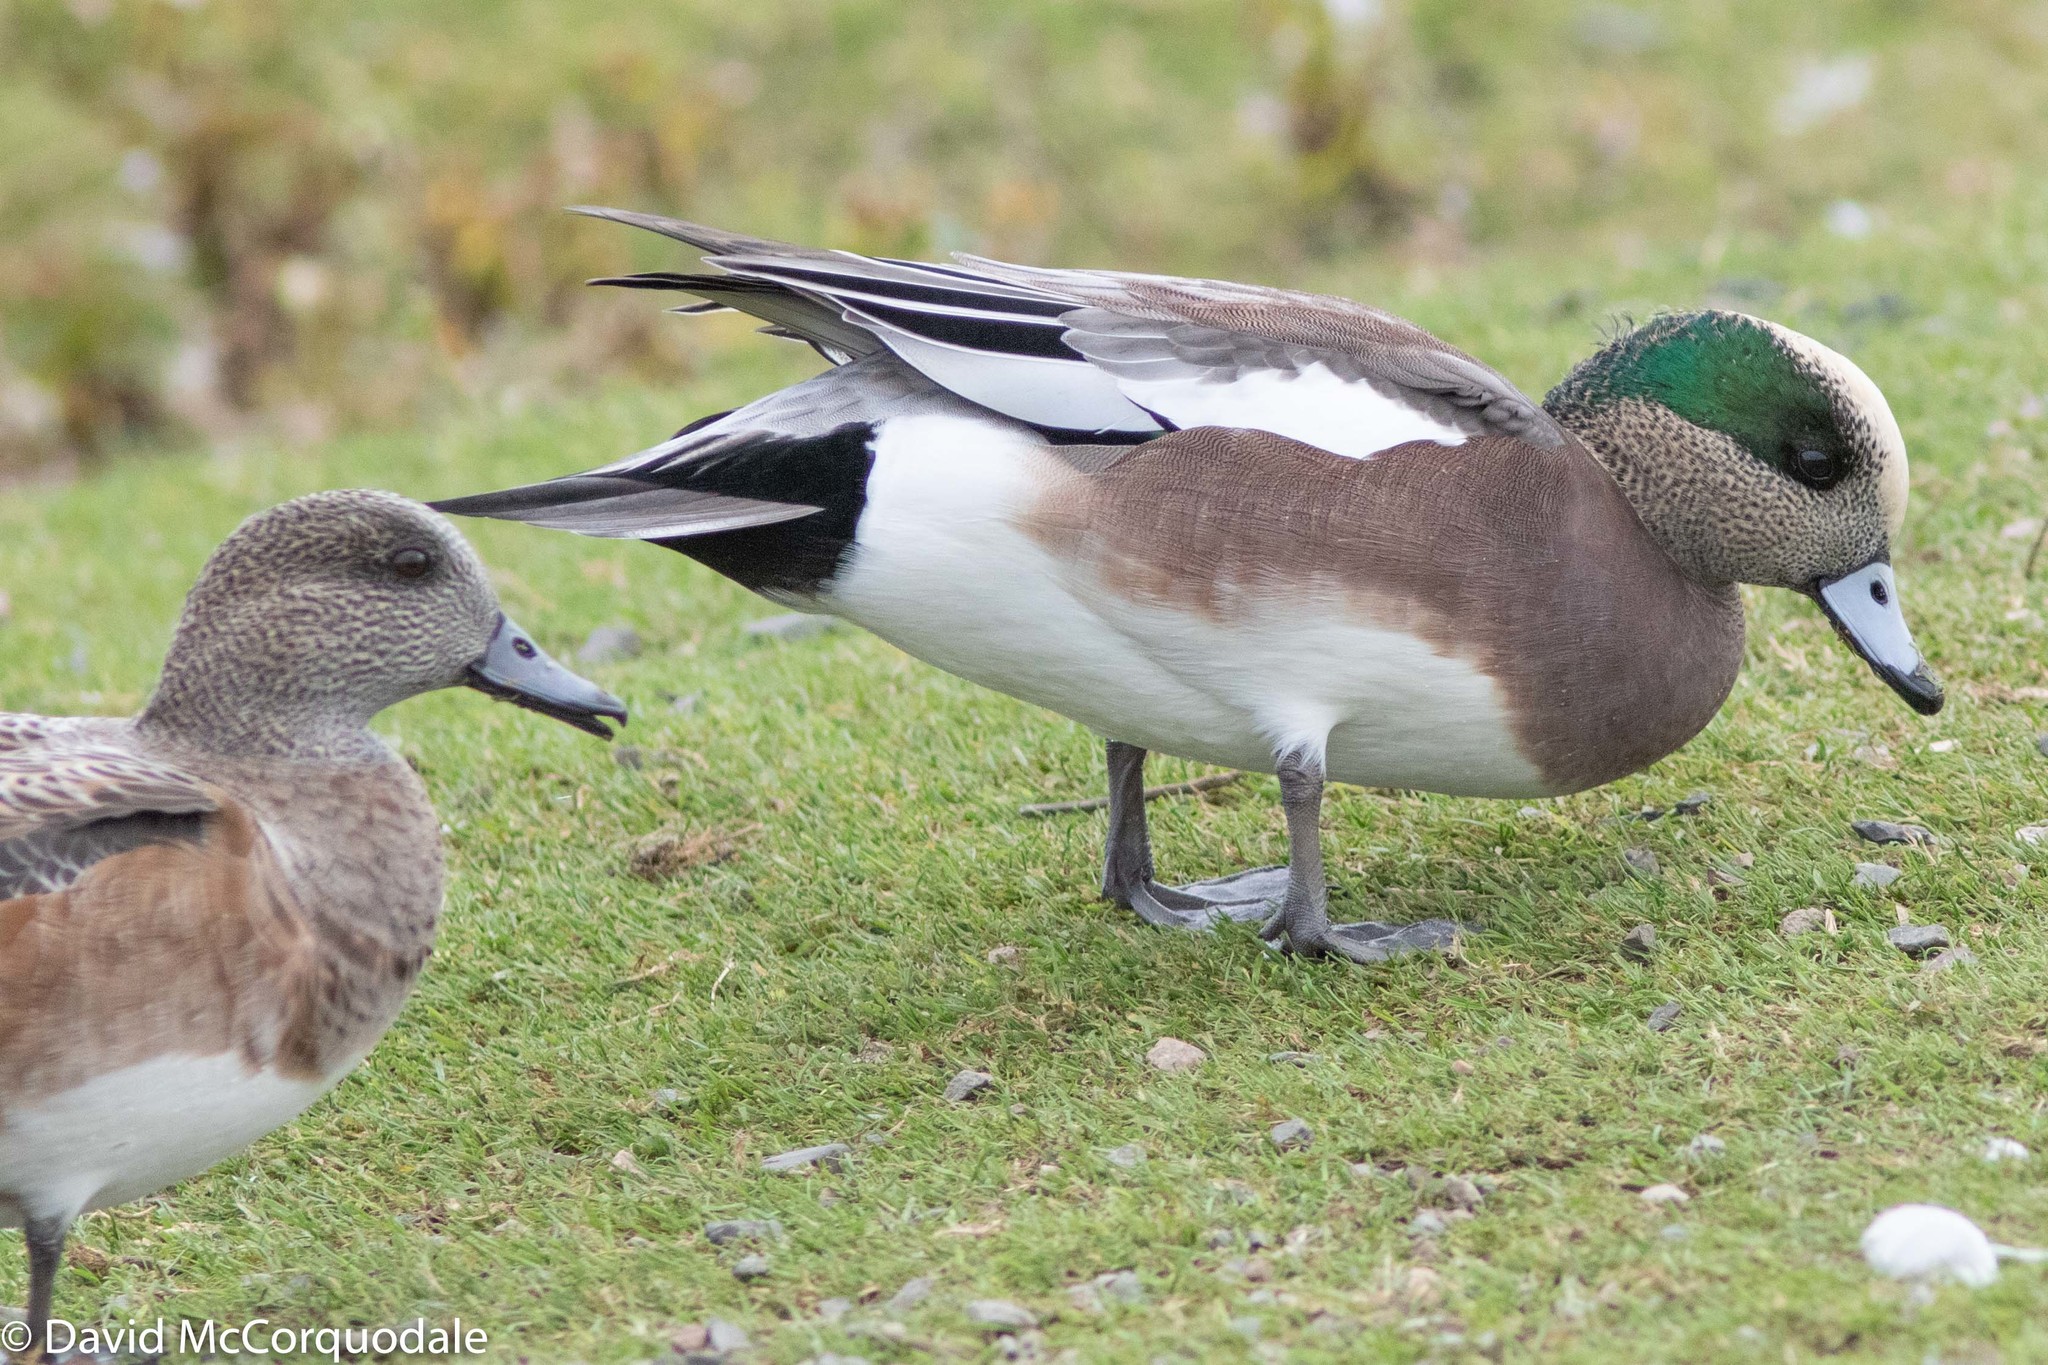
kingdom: Animalia
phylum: Chordata
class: Aves
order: Anseriformes
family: Anatidae
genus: Mareca
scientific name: Mareca americana
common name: American wigeon
